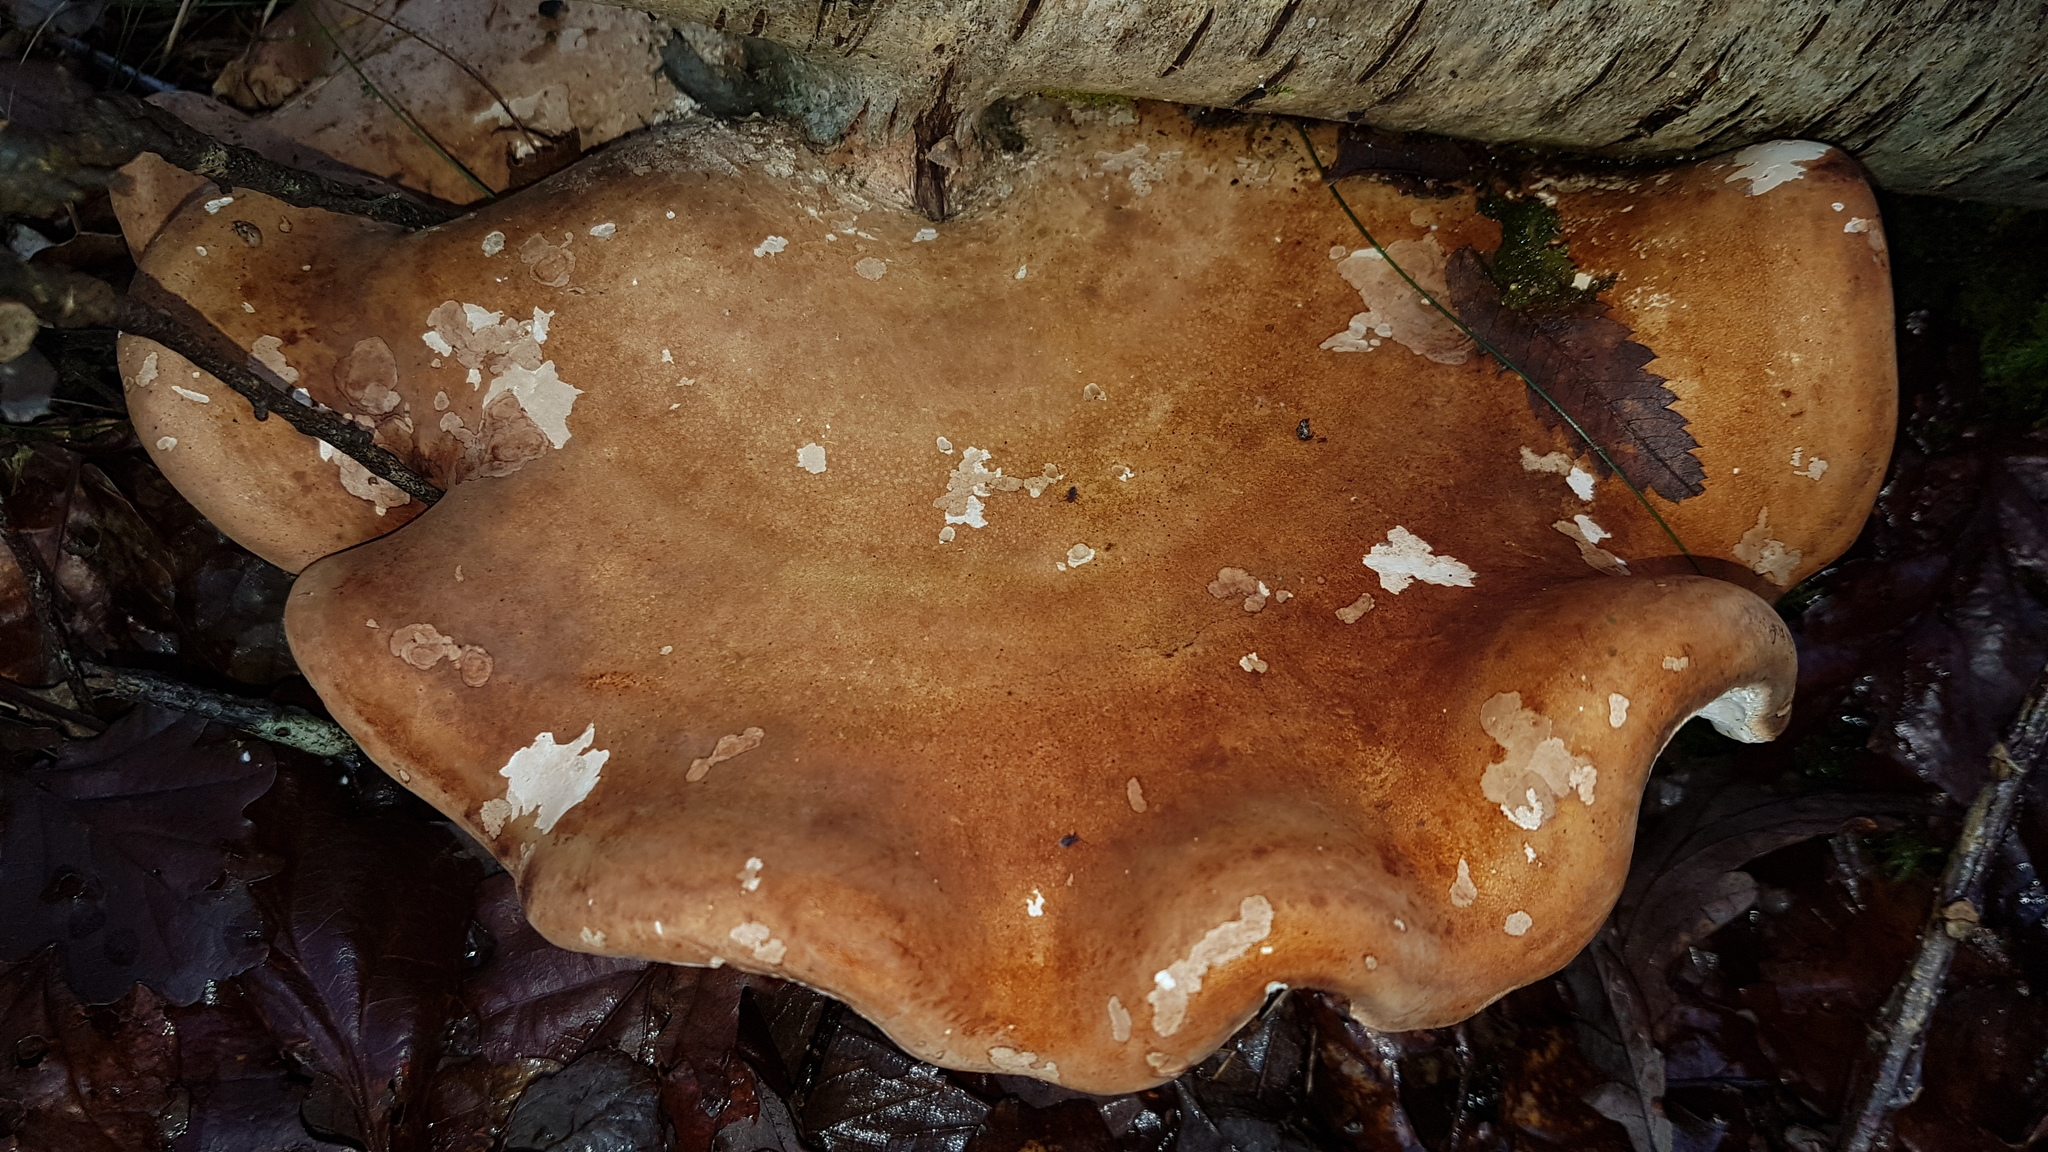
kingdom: Fungi
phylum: Basidiomycota
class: Agaricomycetes
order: Polyporales
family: Fomitopsidaceae
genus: Fomitopsis
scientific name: Fomitopsis betulina
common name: Birch polypore
